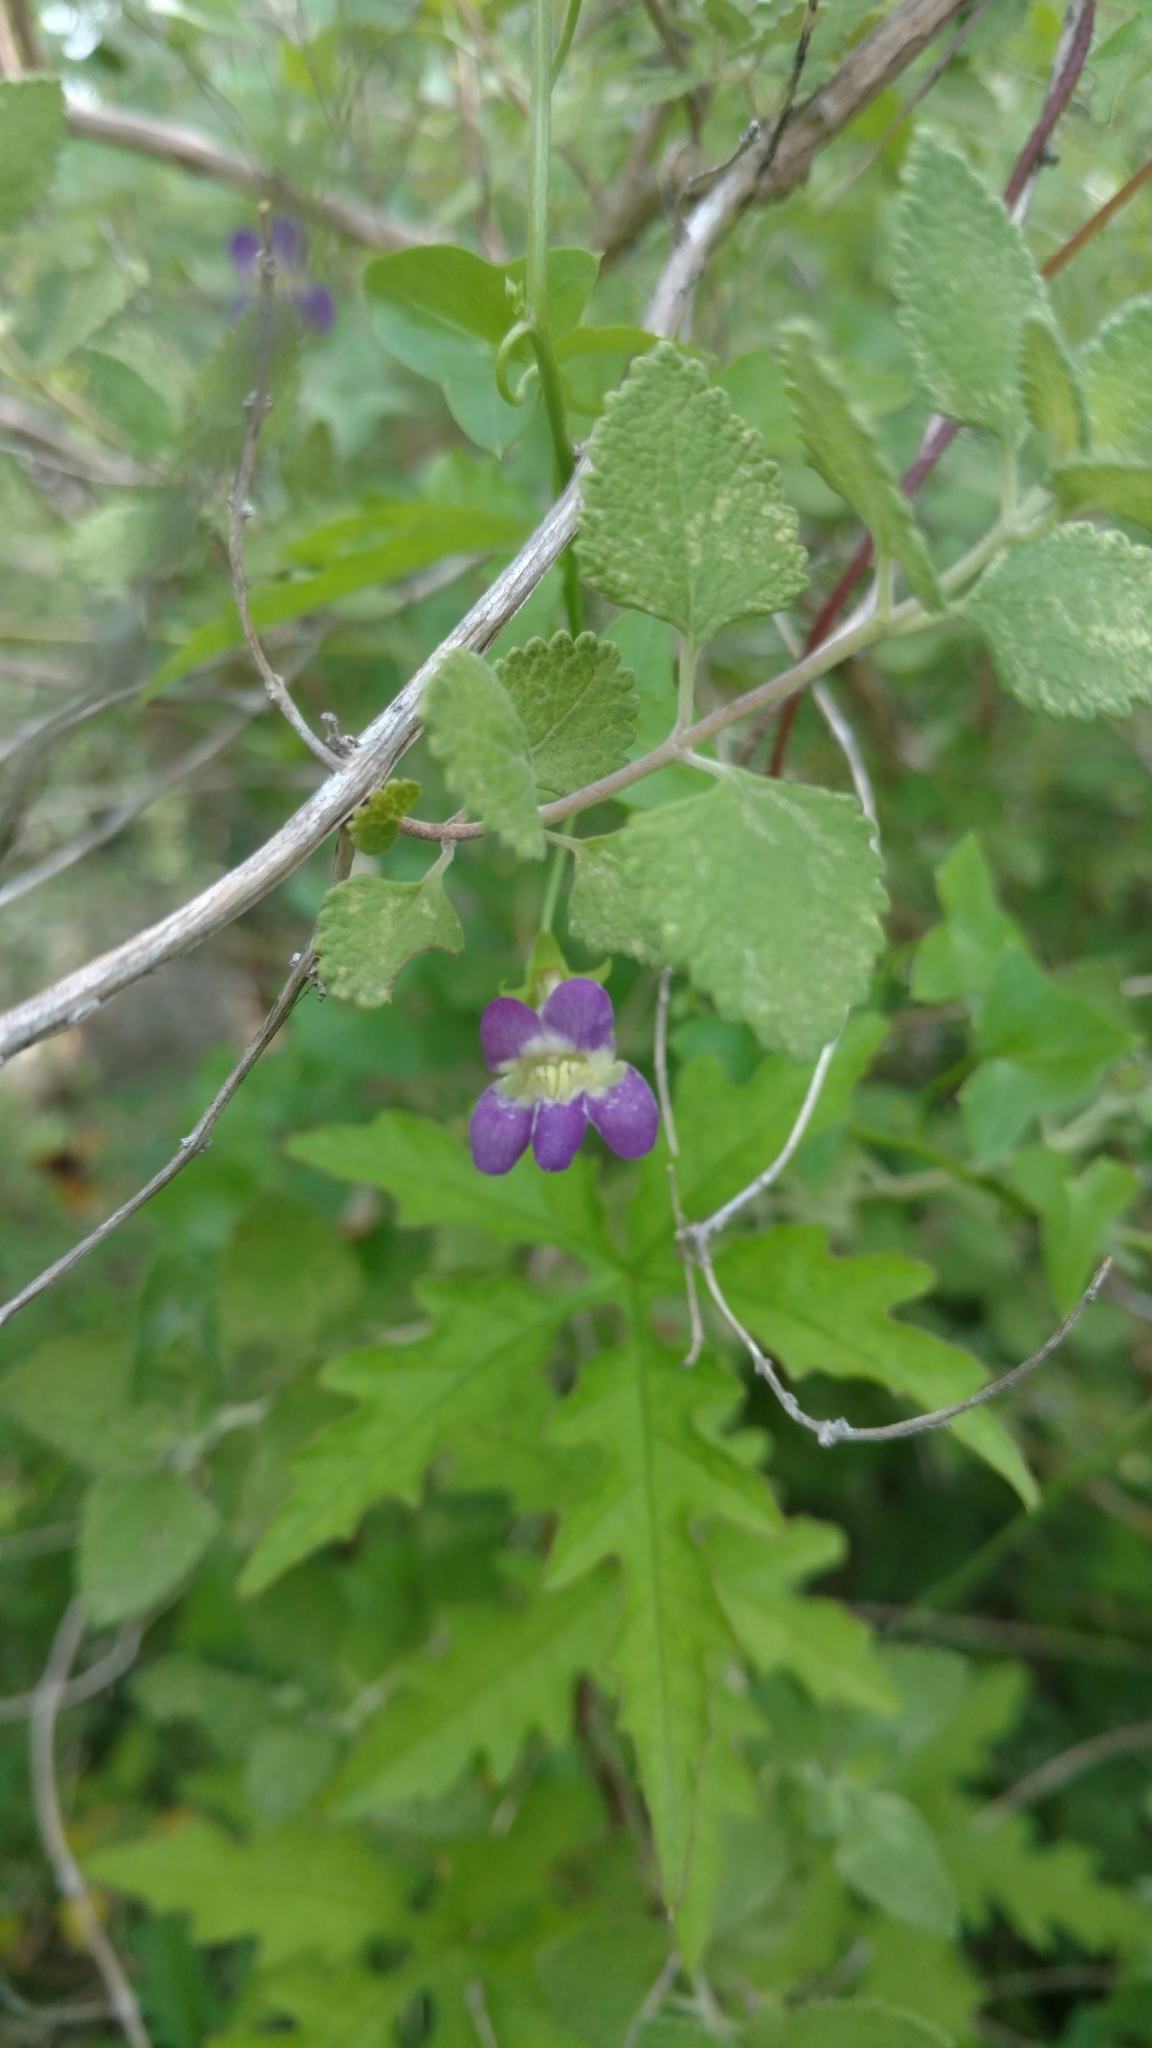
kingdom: Plantae
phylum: Tracheophyta
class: Magnoliopsida
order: Lamiales
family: Plantaginaceae
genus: Maurandella
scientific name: Maurandella antirrhiniflora
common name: Violet twining-snapdragon
